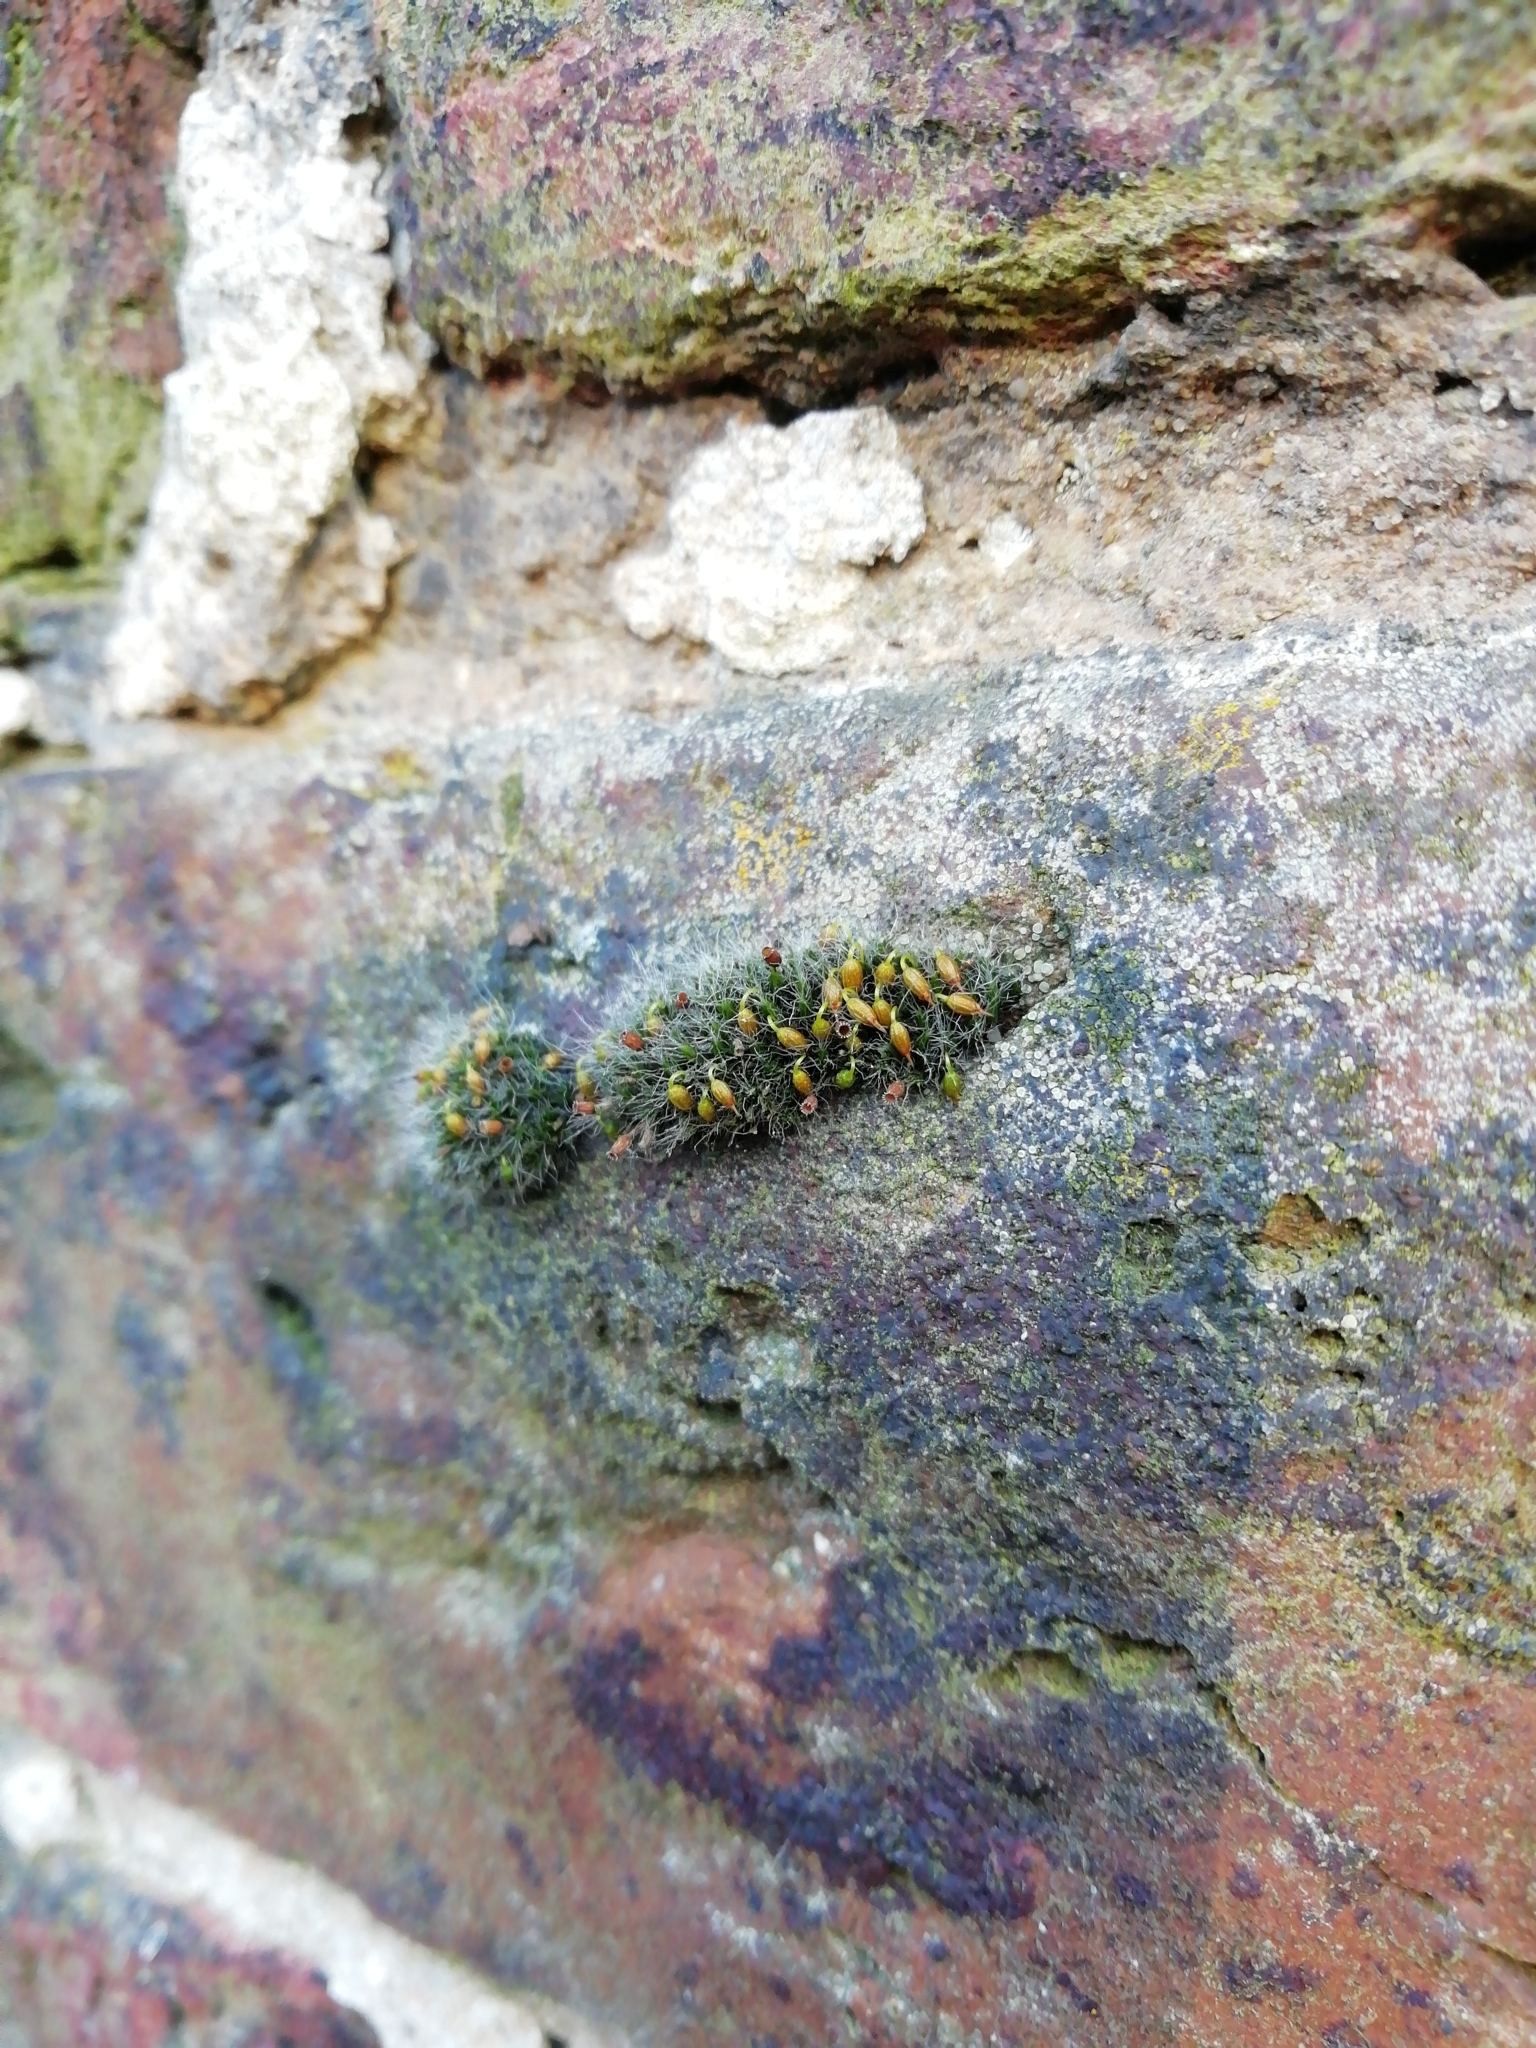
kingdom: Plantae
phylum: Bryophyta
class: Bryopsida
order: Grimmiales
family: Grimmiaceae
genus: Grimmia
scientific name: Grimmia pulvinata
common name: Grey-cushioned grimmia
